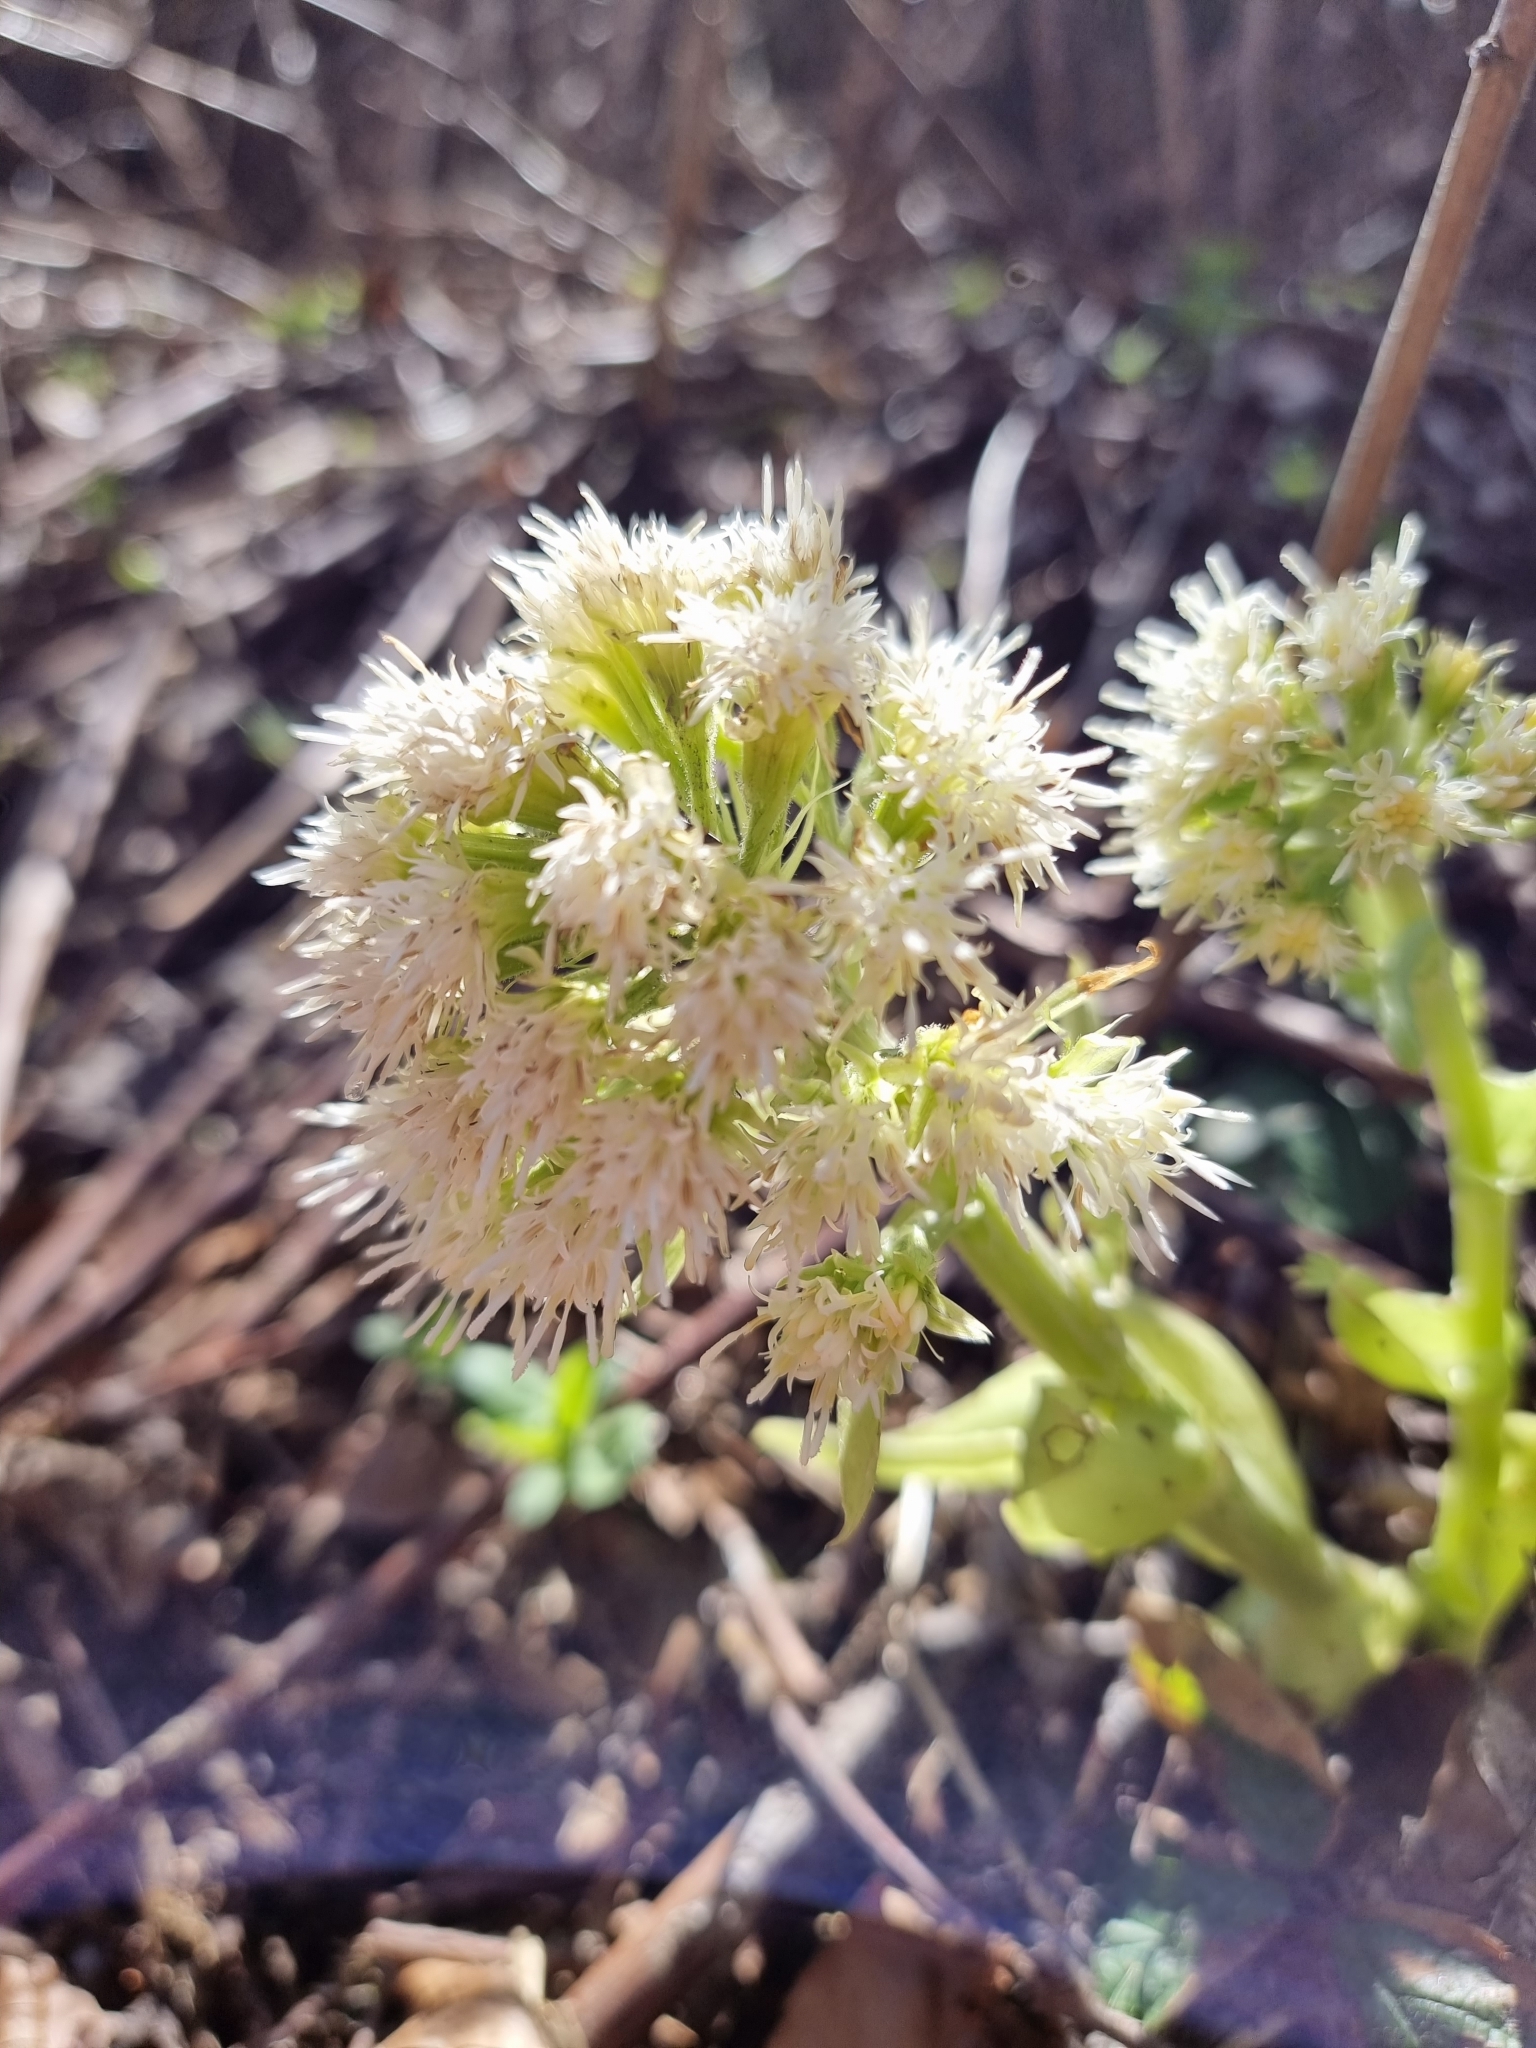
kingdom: Plantae
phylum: Tracheophyta
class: Magnoliopsida
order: Asterales
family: Asteraceae
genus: Petasites
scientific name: Petasites albus
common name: White butterbur
